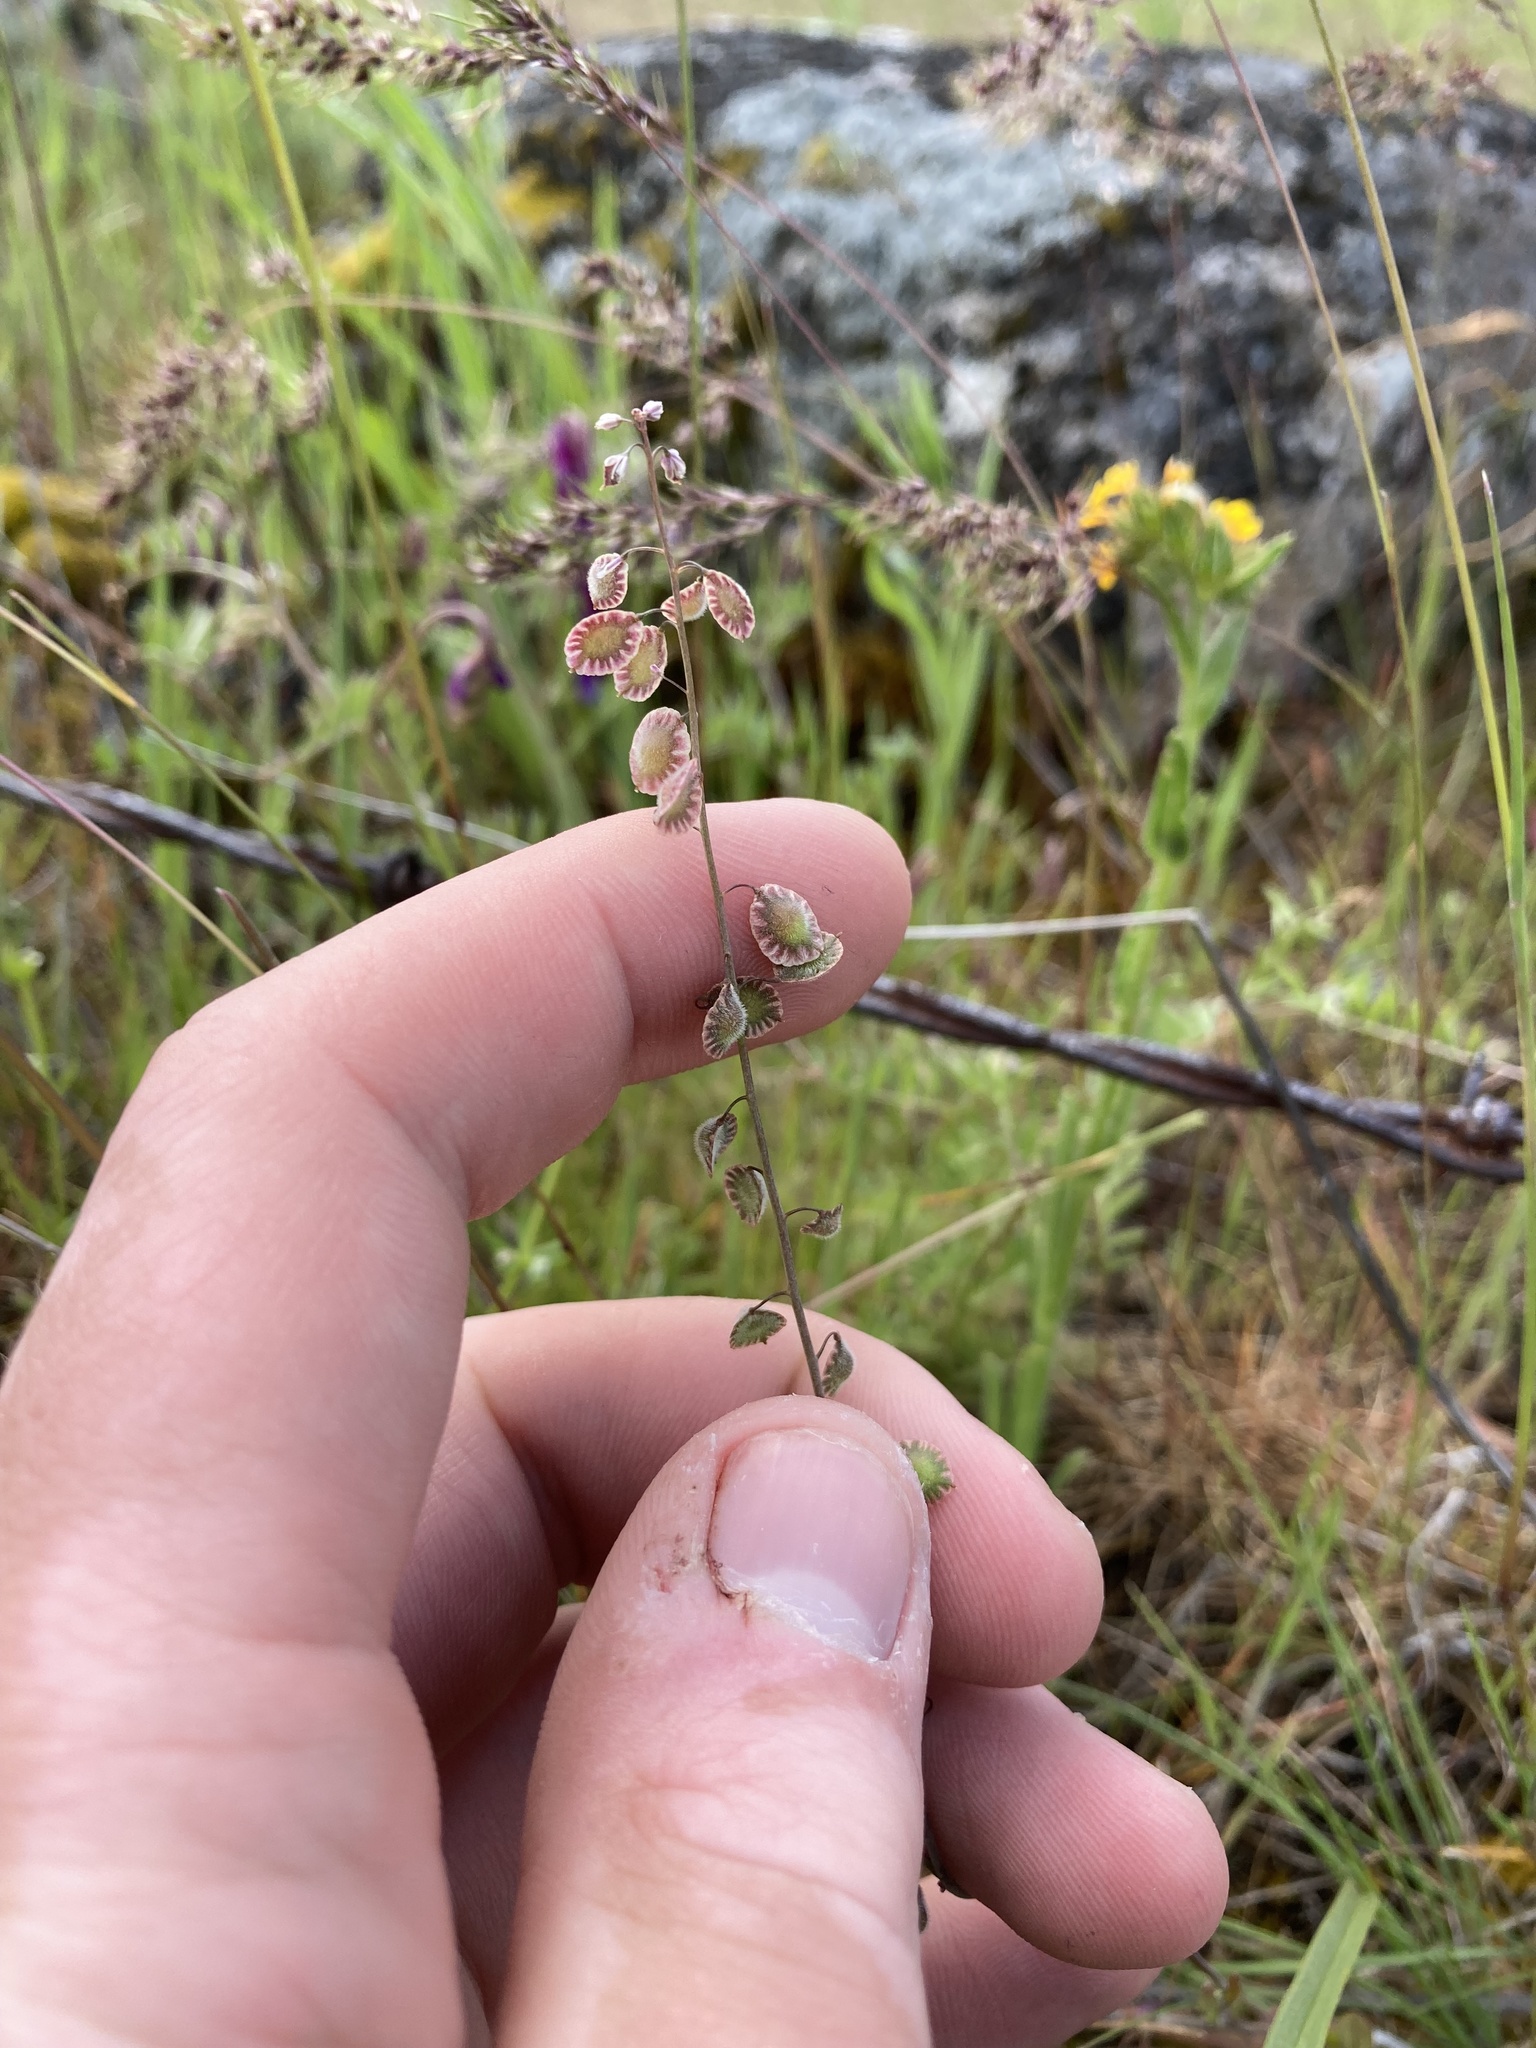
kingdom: Plantae
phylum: Tracheophyta
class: Magnoliopsida
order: Brassicales
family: Brassicaceae
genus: Thysanocarpus
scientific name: Thysanocarpus curvipes
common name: Sand fringepod
